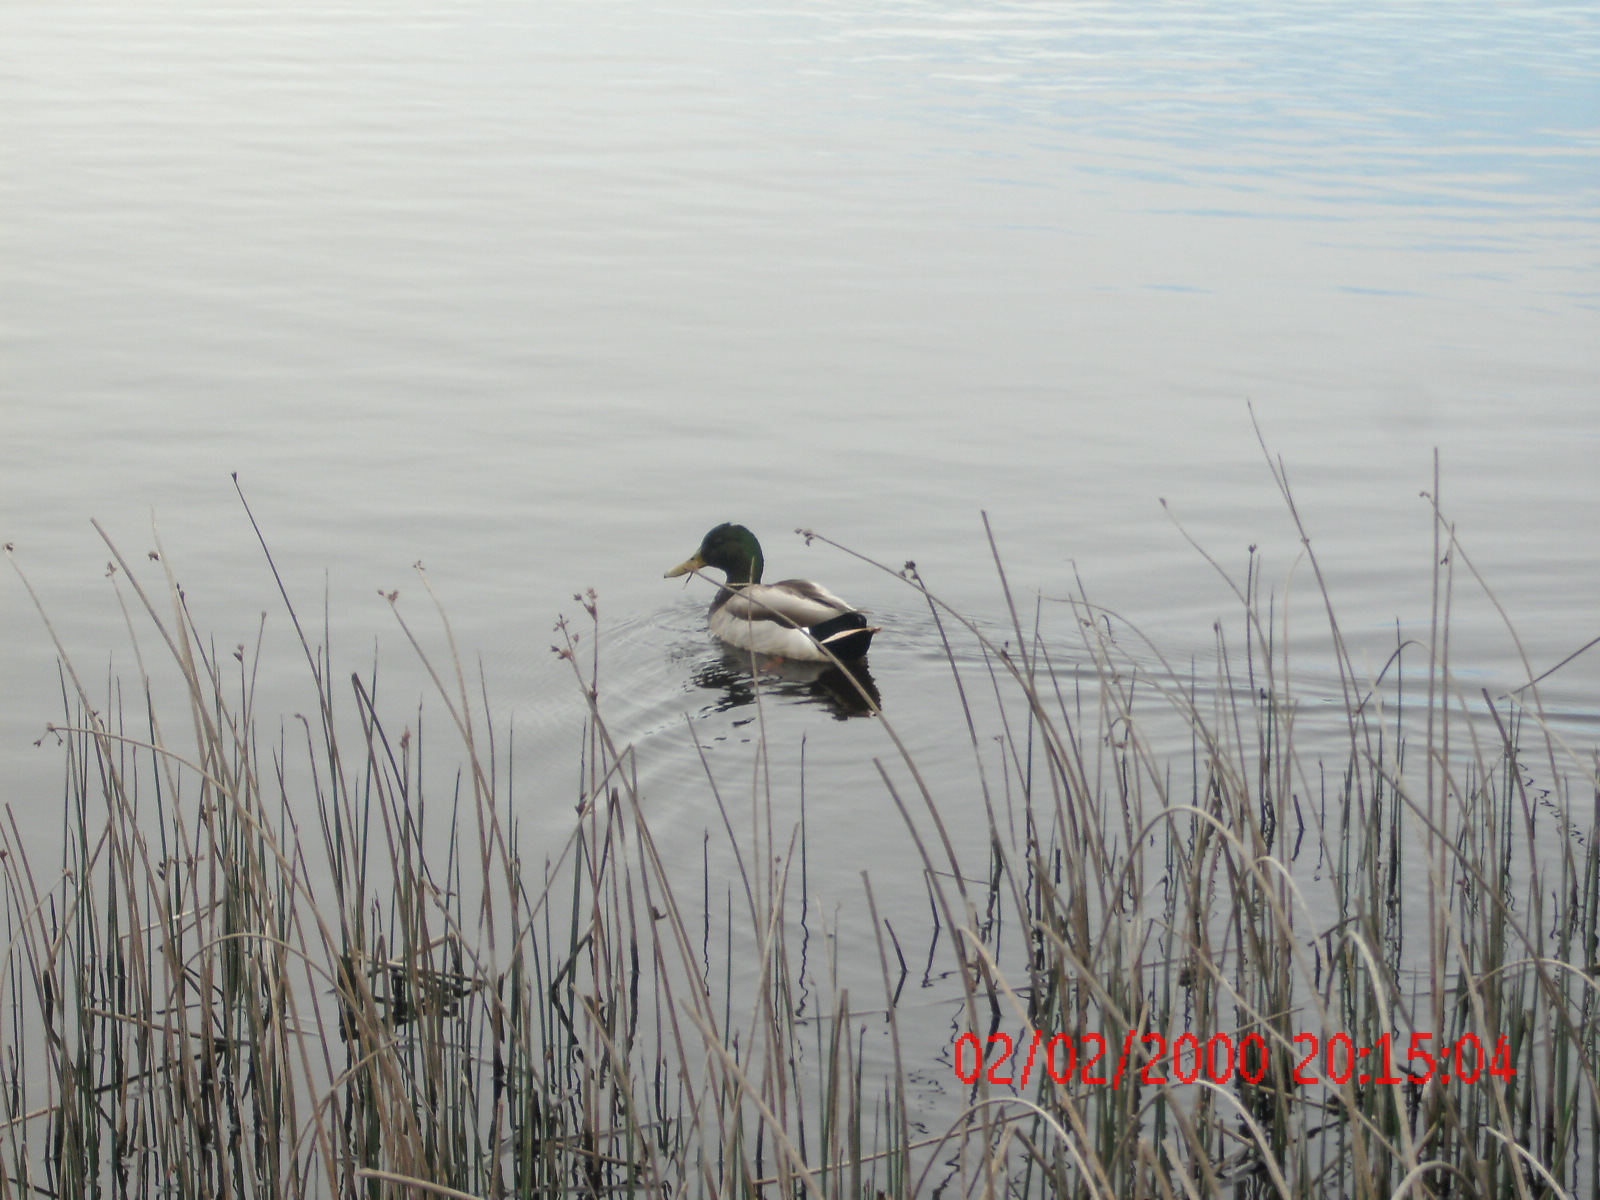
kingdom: Animalia
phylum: Chordata
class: Aves
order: Anseriformes
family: Anatidae
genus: Anas
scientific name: Anas platyrhynchos
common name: Mallard
